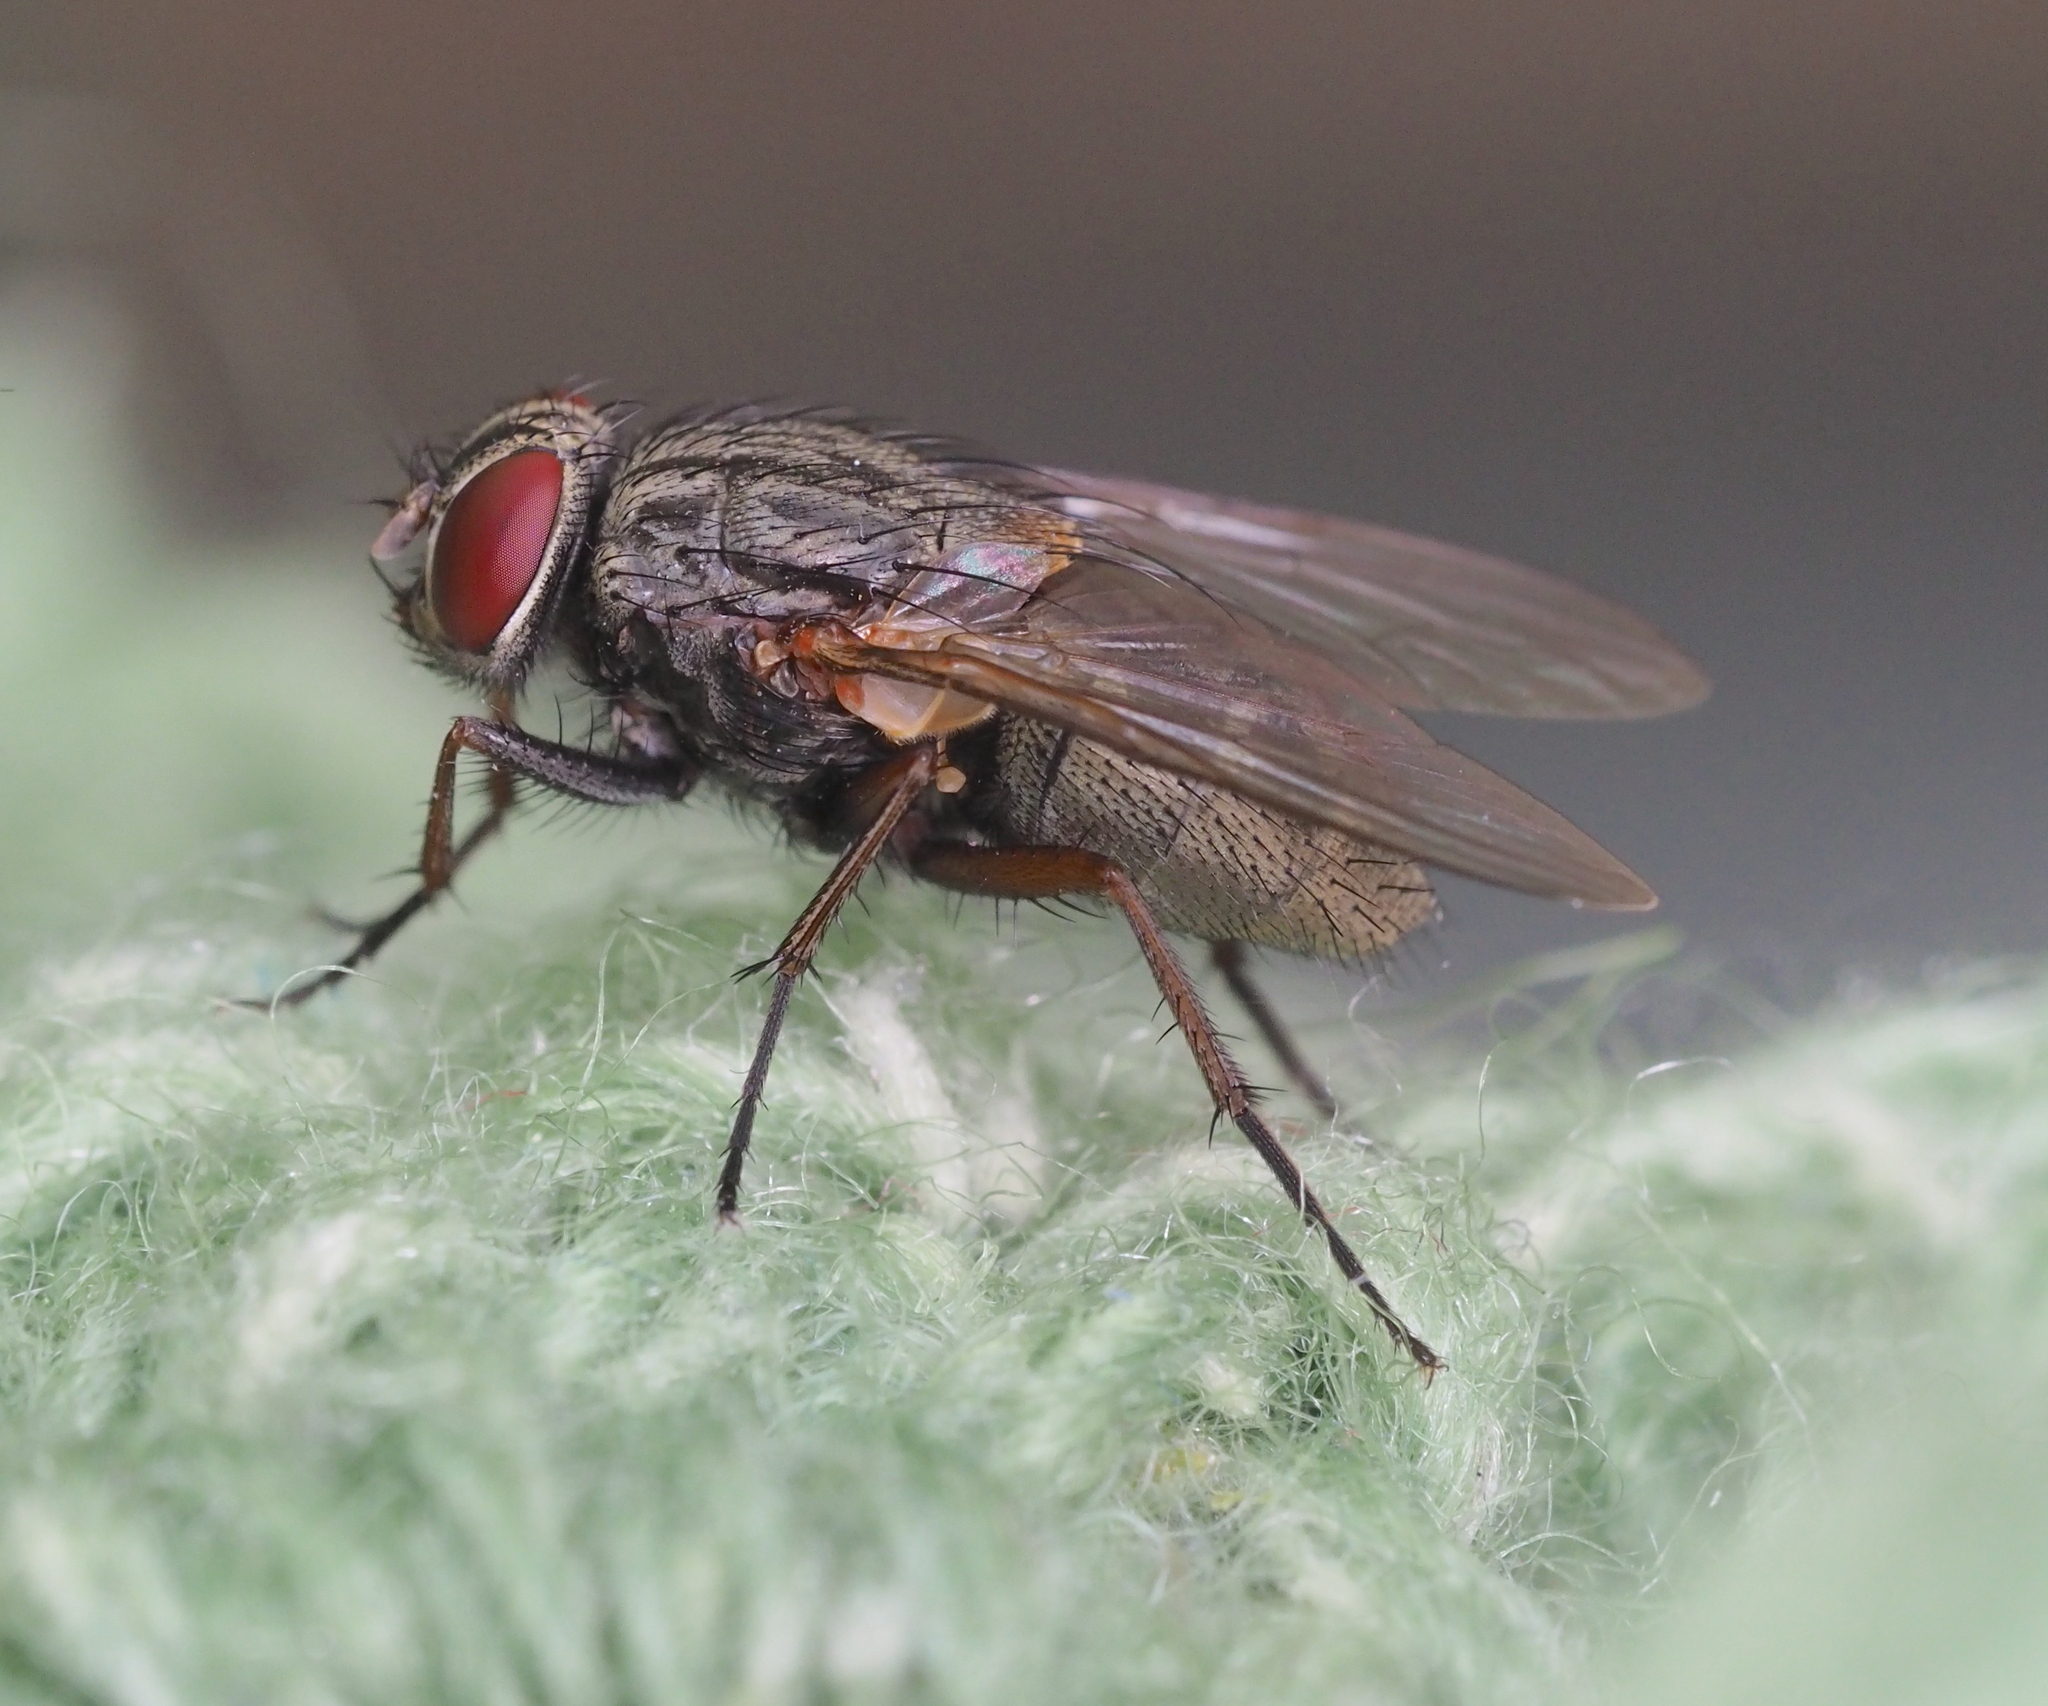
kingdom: Animalia
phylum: Arthropoda
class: Insecta
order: Diptera
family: Muscidae
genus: Muscina
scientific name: Muscina stabulans
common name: False stable fly
